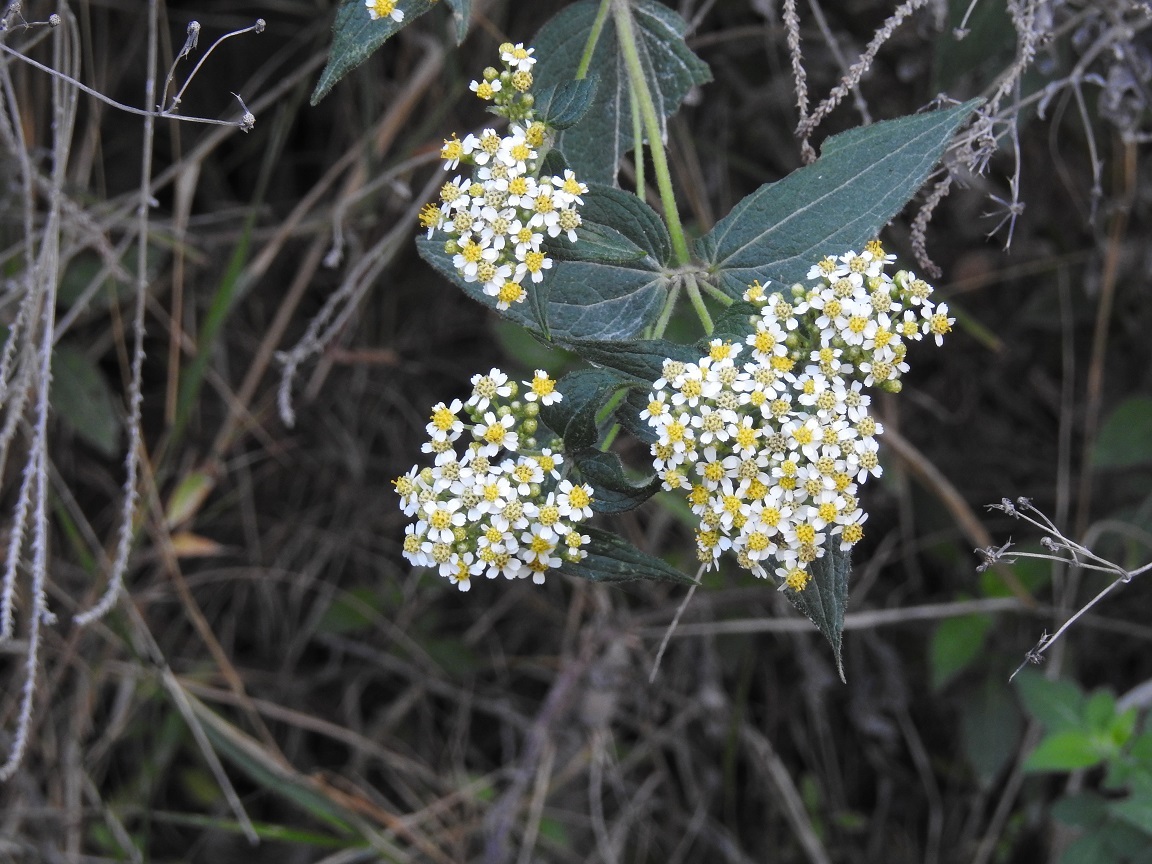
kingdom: Plantae
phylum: Tracheophyta
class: Magnoliopsida
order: Asterales
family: Asteraceae
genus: Alloispermum
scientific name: Alloispermum integrifolium
